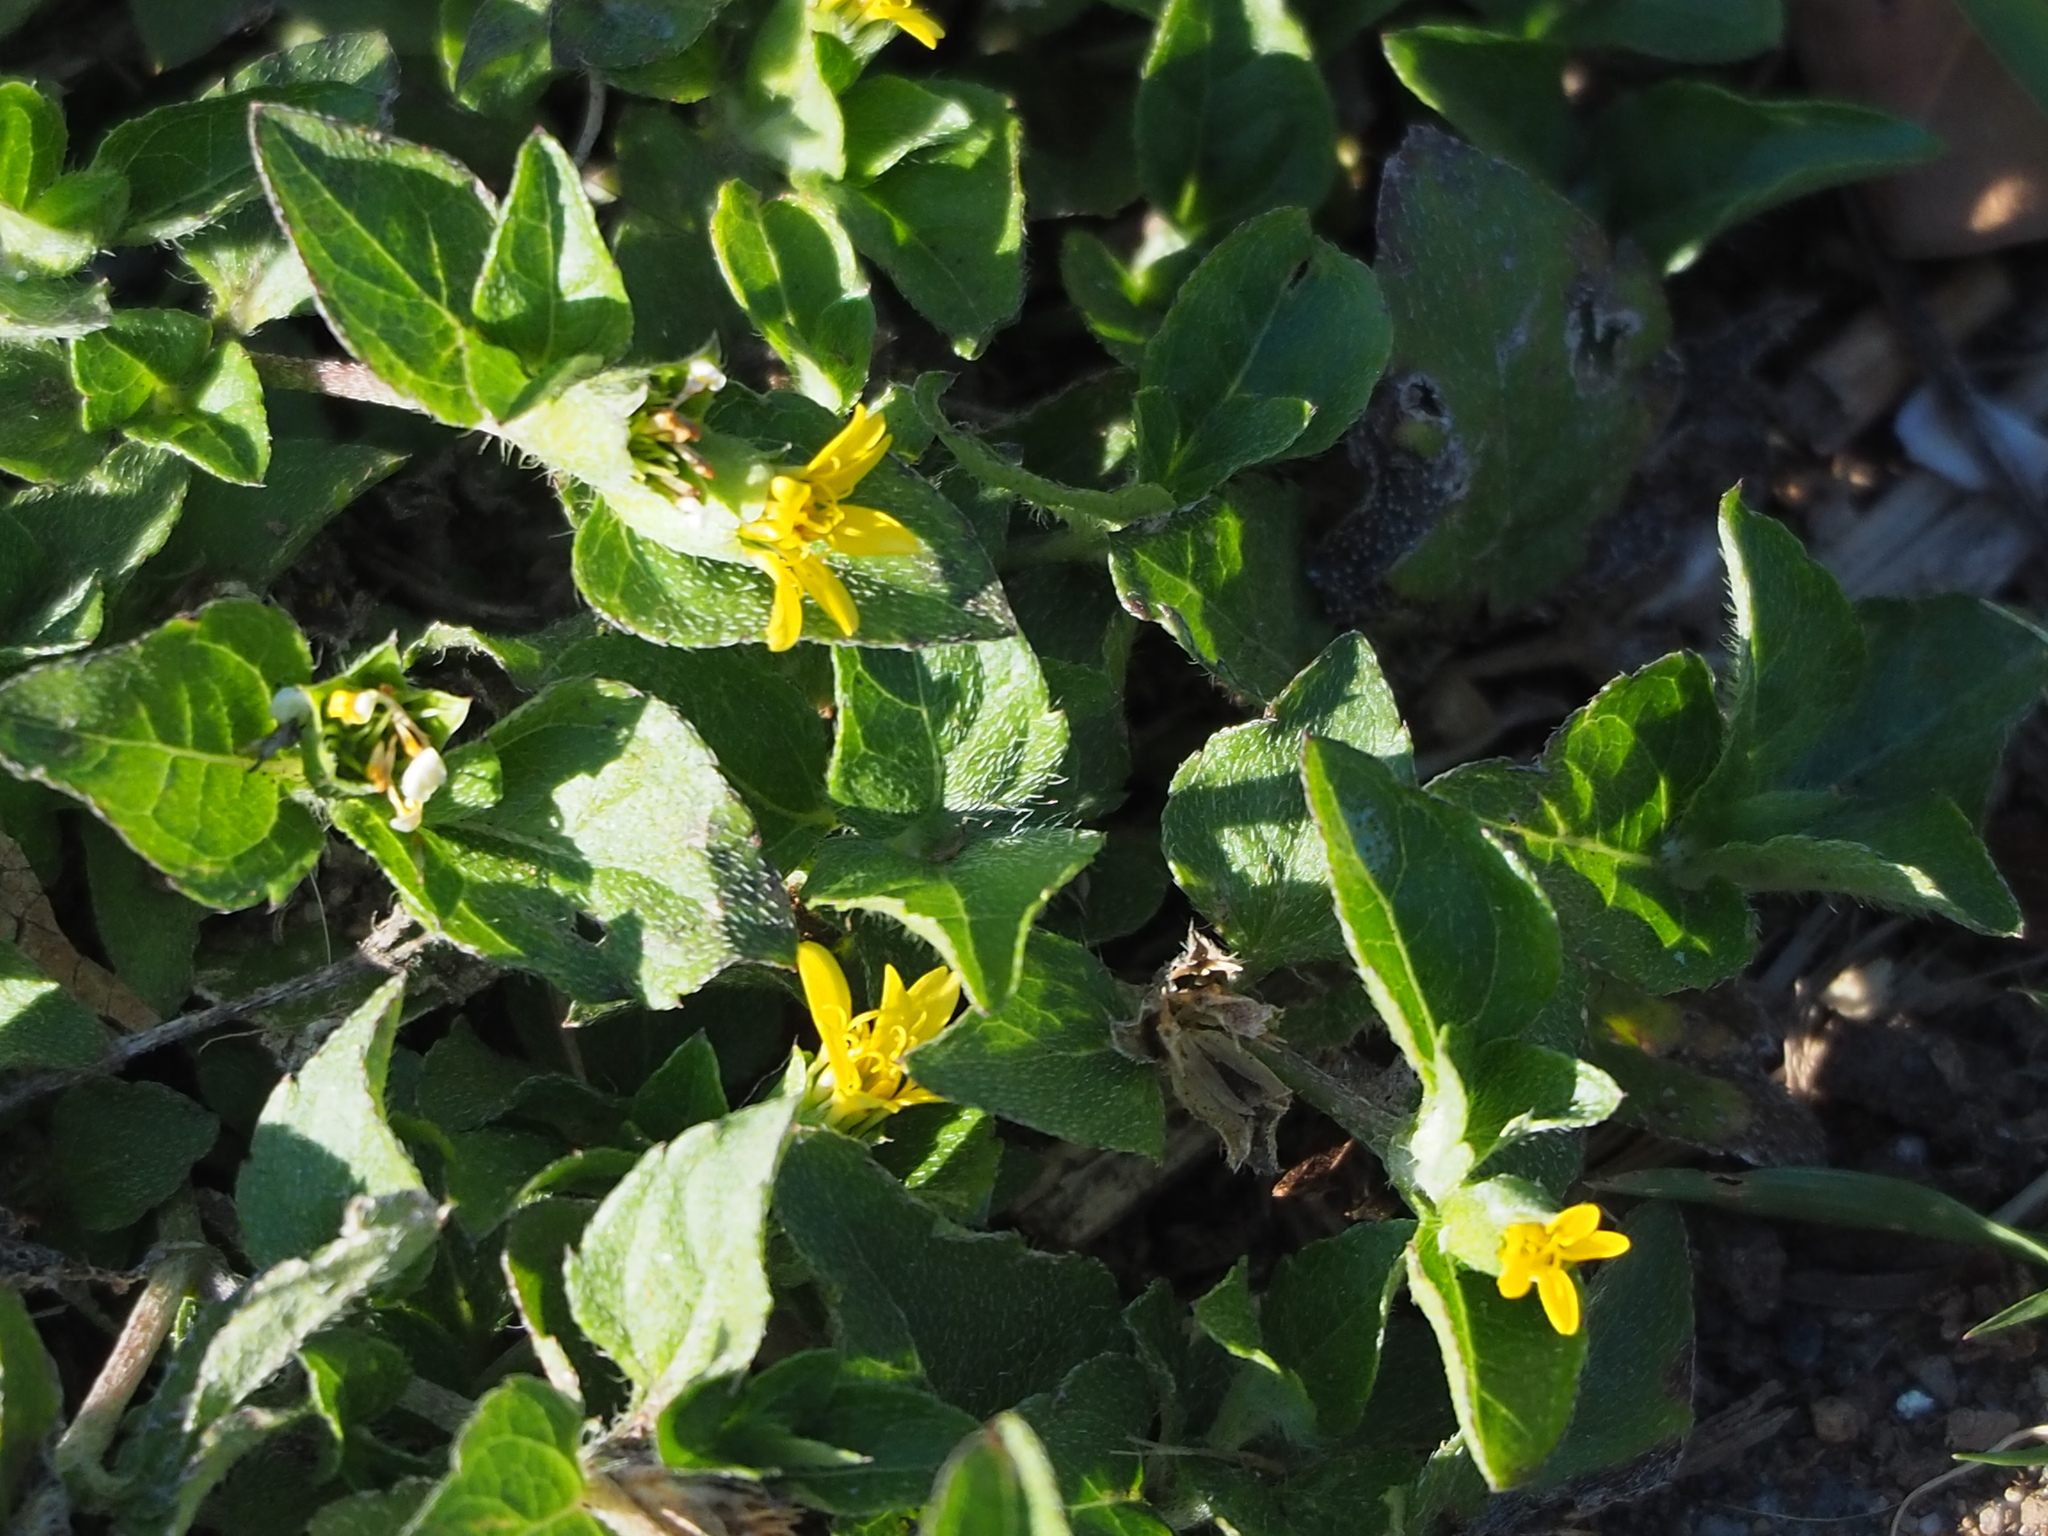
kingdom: Plantae
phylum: Tracheophyta
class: Magnoliopsida
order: Asterales
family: Asteraceae
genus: Calyptocarpus
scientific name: Calyptocarpus vialis
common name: Straggler daisy
